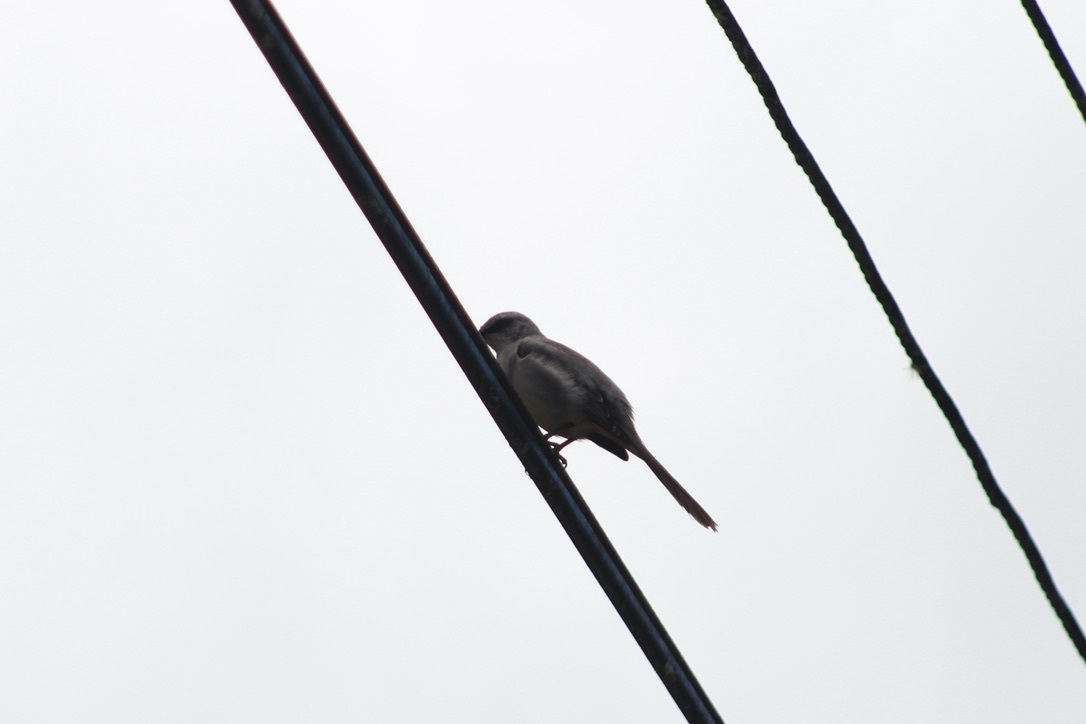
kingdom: Animalia
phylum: Chordata
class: Aves
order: Passeriformes
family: Mimidae
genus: Mimus
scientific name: Mimus gilvus
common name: Tropical mockingbird
